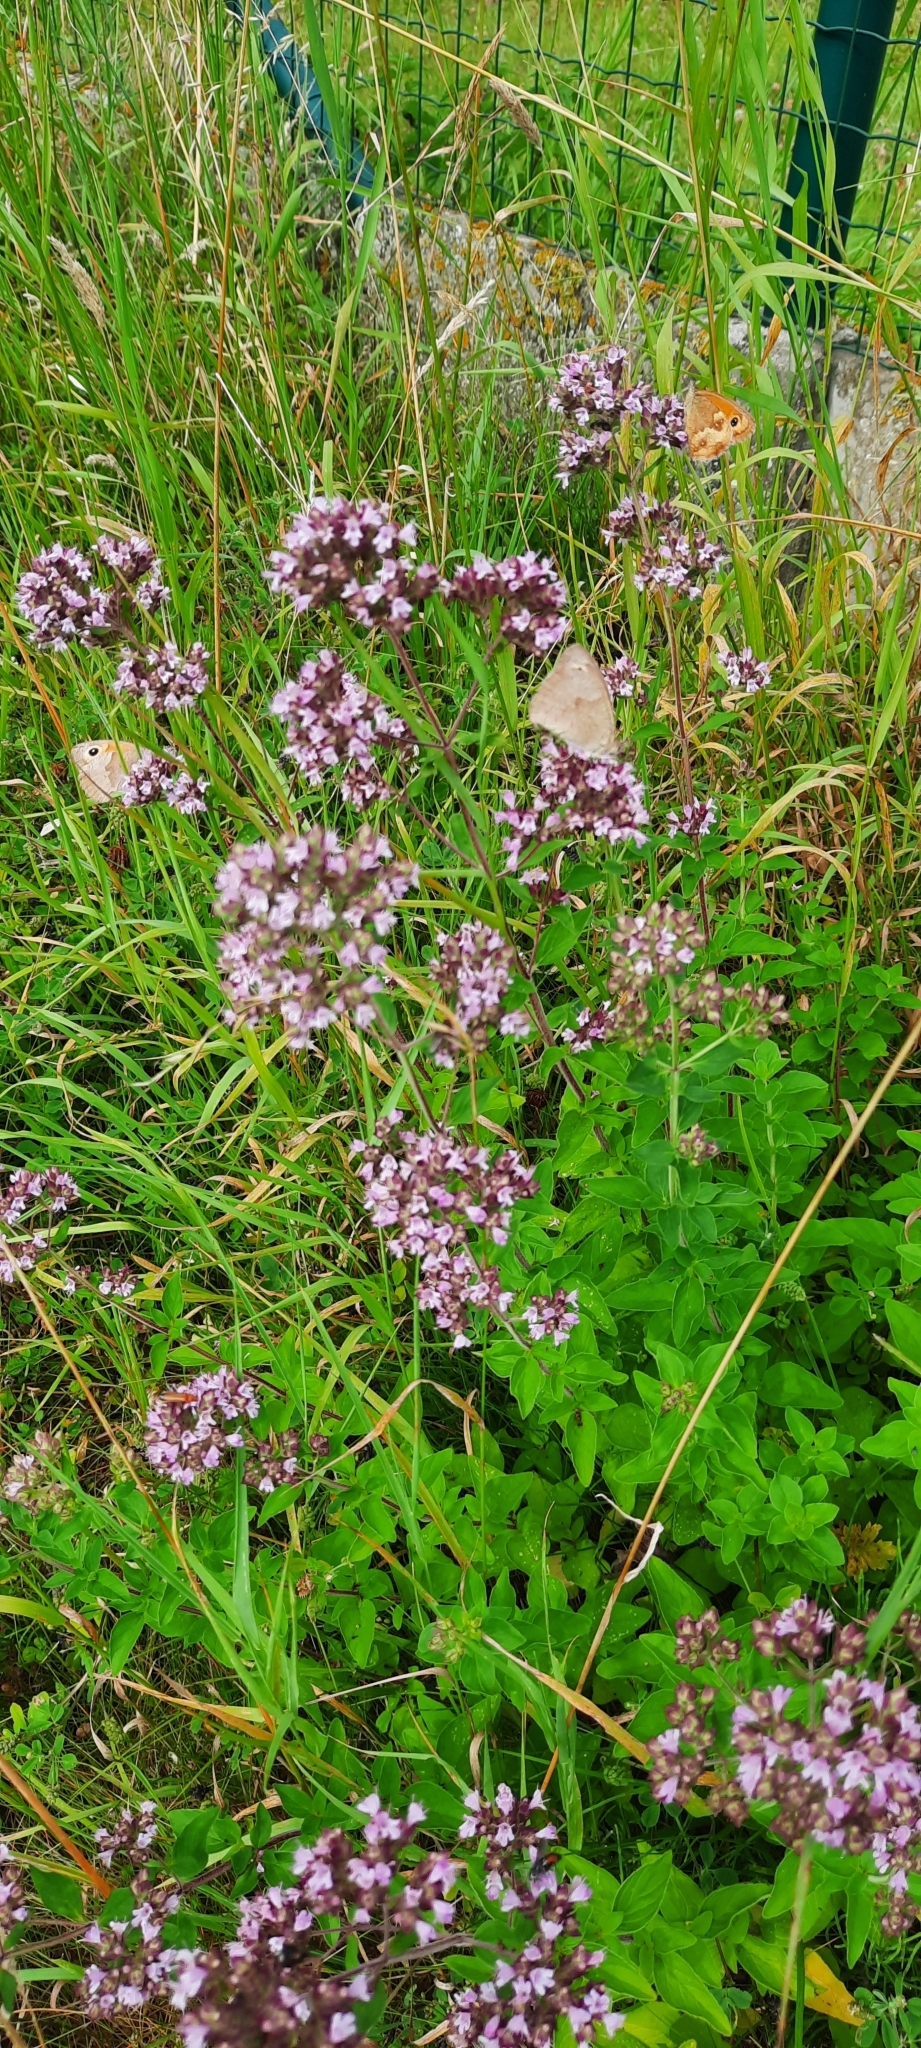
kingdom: Plantae
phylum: Tracheophyta
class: Magnoliopsida
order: Lamiales
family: Lamiaceae
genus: Origanum
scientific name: Origanum vulgare
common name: Wild marjoram
